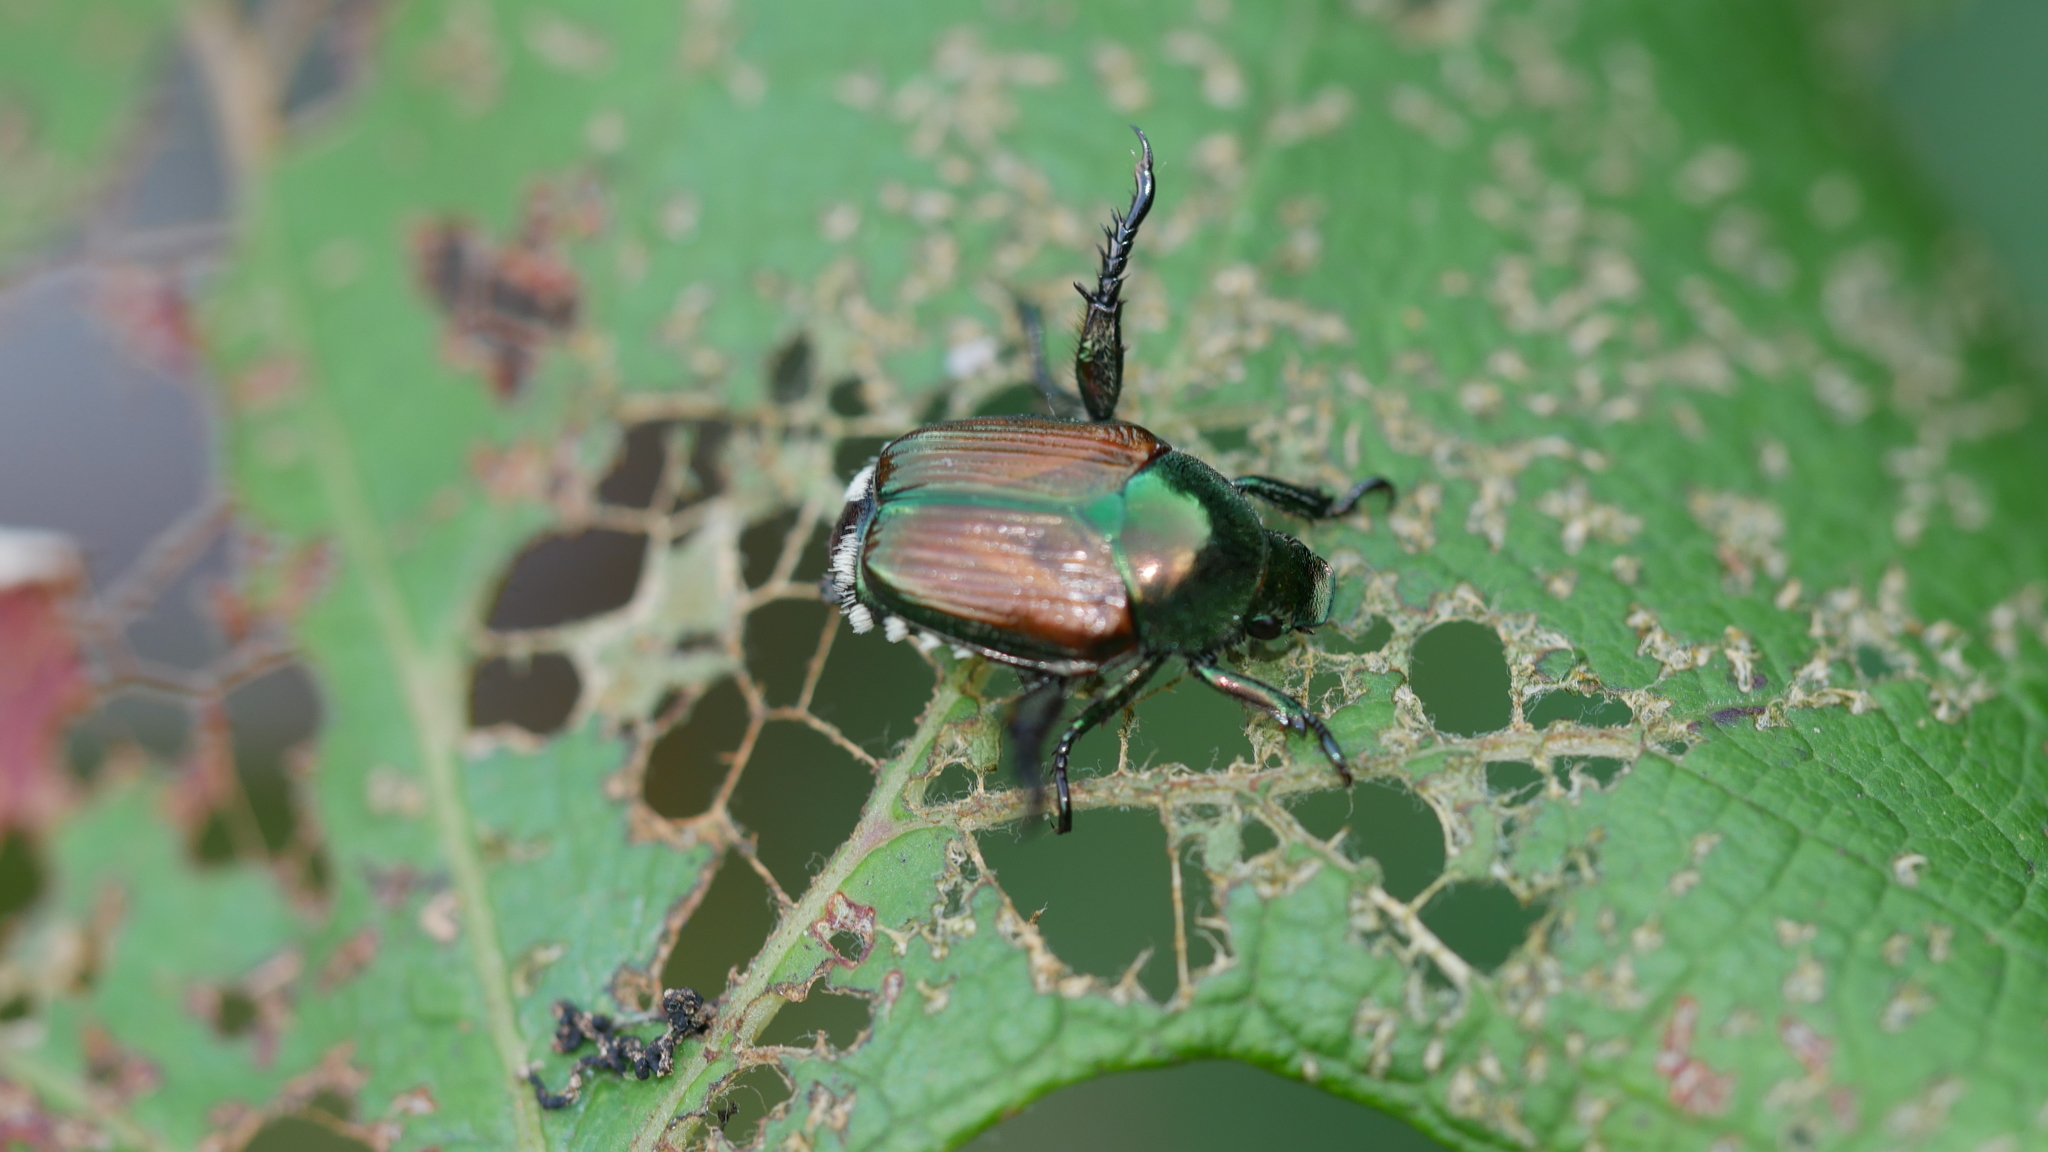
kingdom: Animalia
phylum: Arthropoda
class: Insecta
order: Coleoptera
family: Scarabaeidae
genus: Popillia
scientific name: Popillia japonica
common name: Japanese beetle
